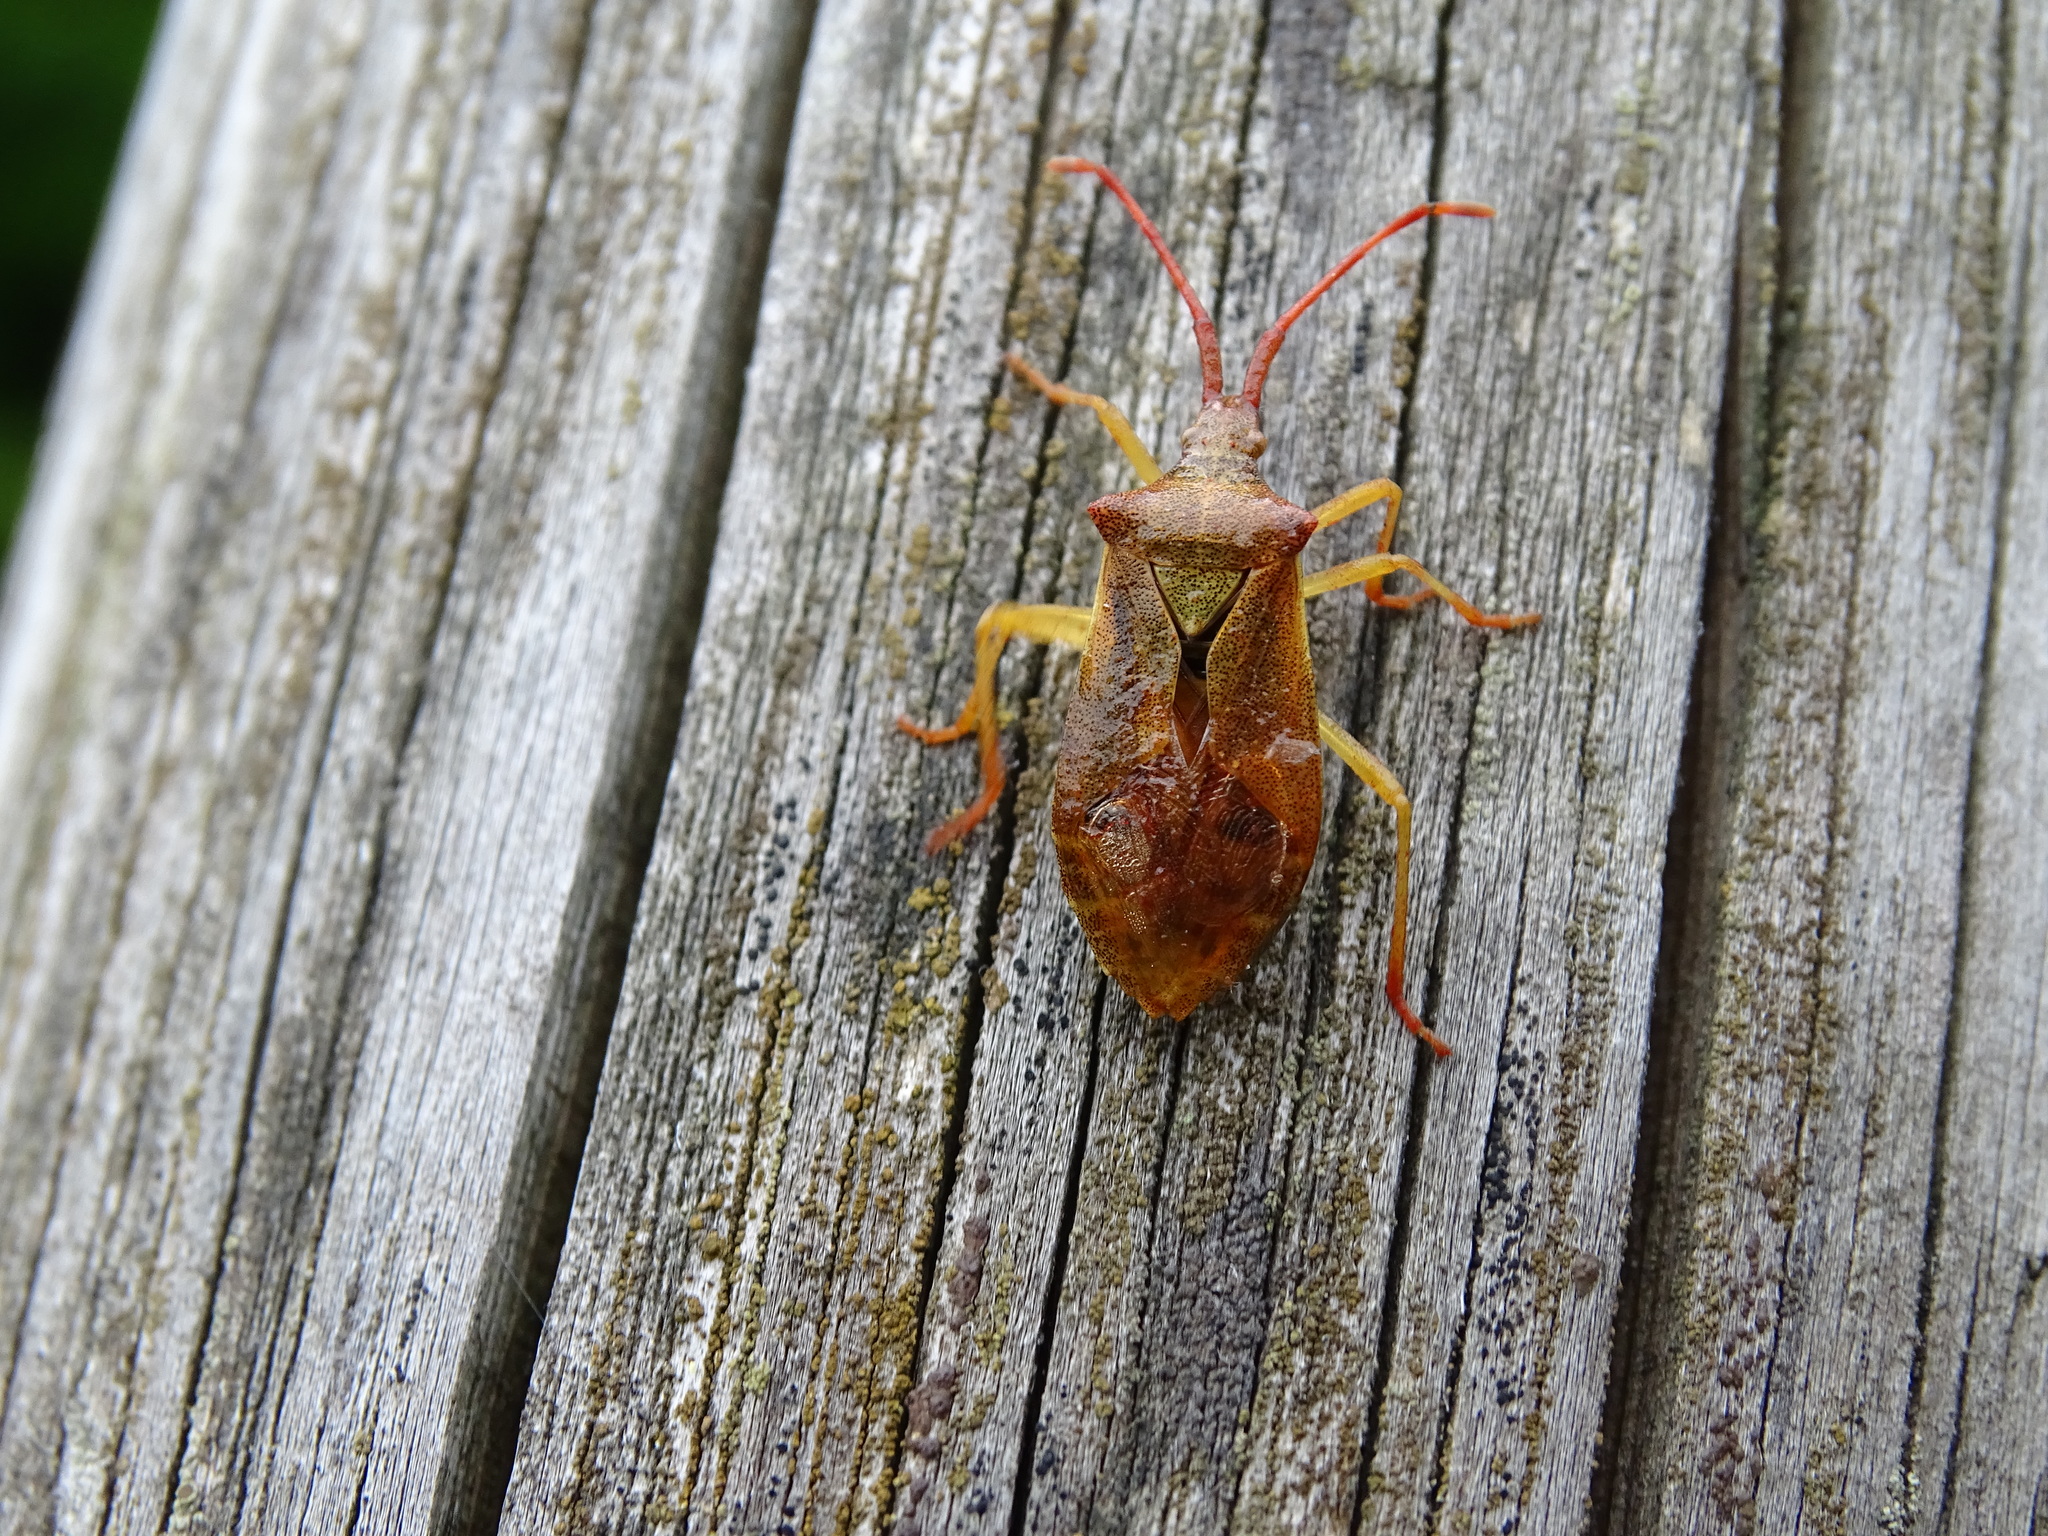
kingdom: Animalia
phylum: Arthropoda
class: Insecta
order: Hemiptera
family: Coreidae
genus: Gonocerus
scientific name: Gonocerus acuteangulatus
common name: Box bug
